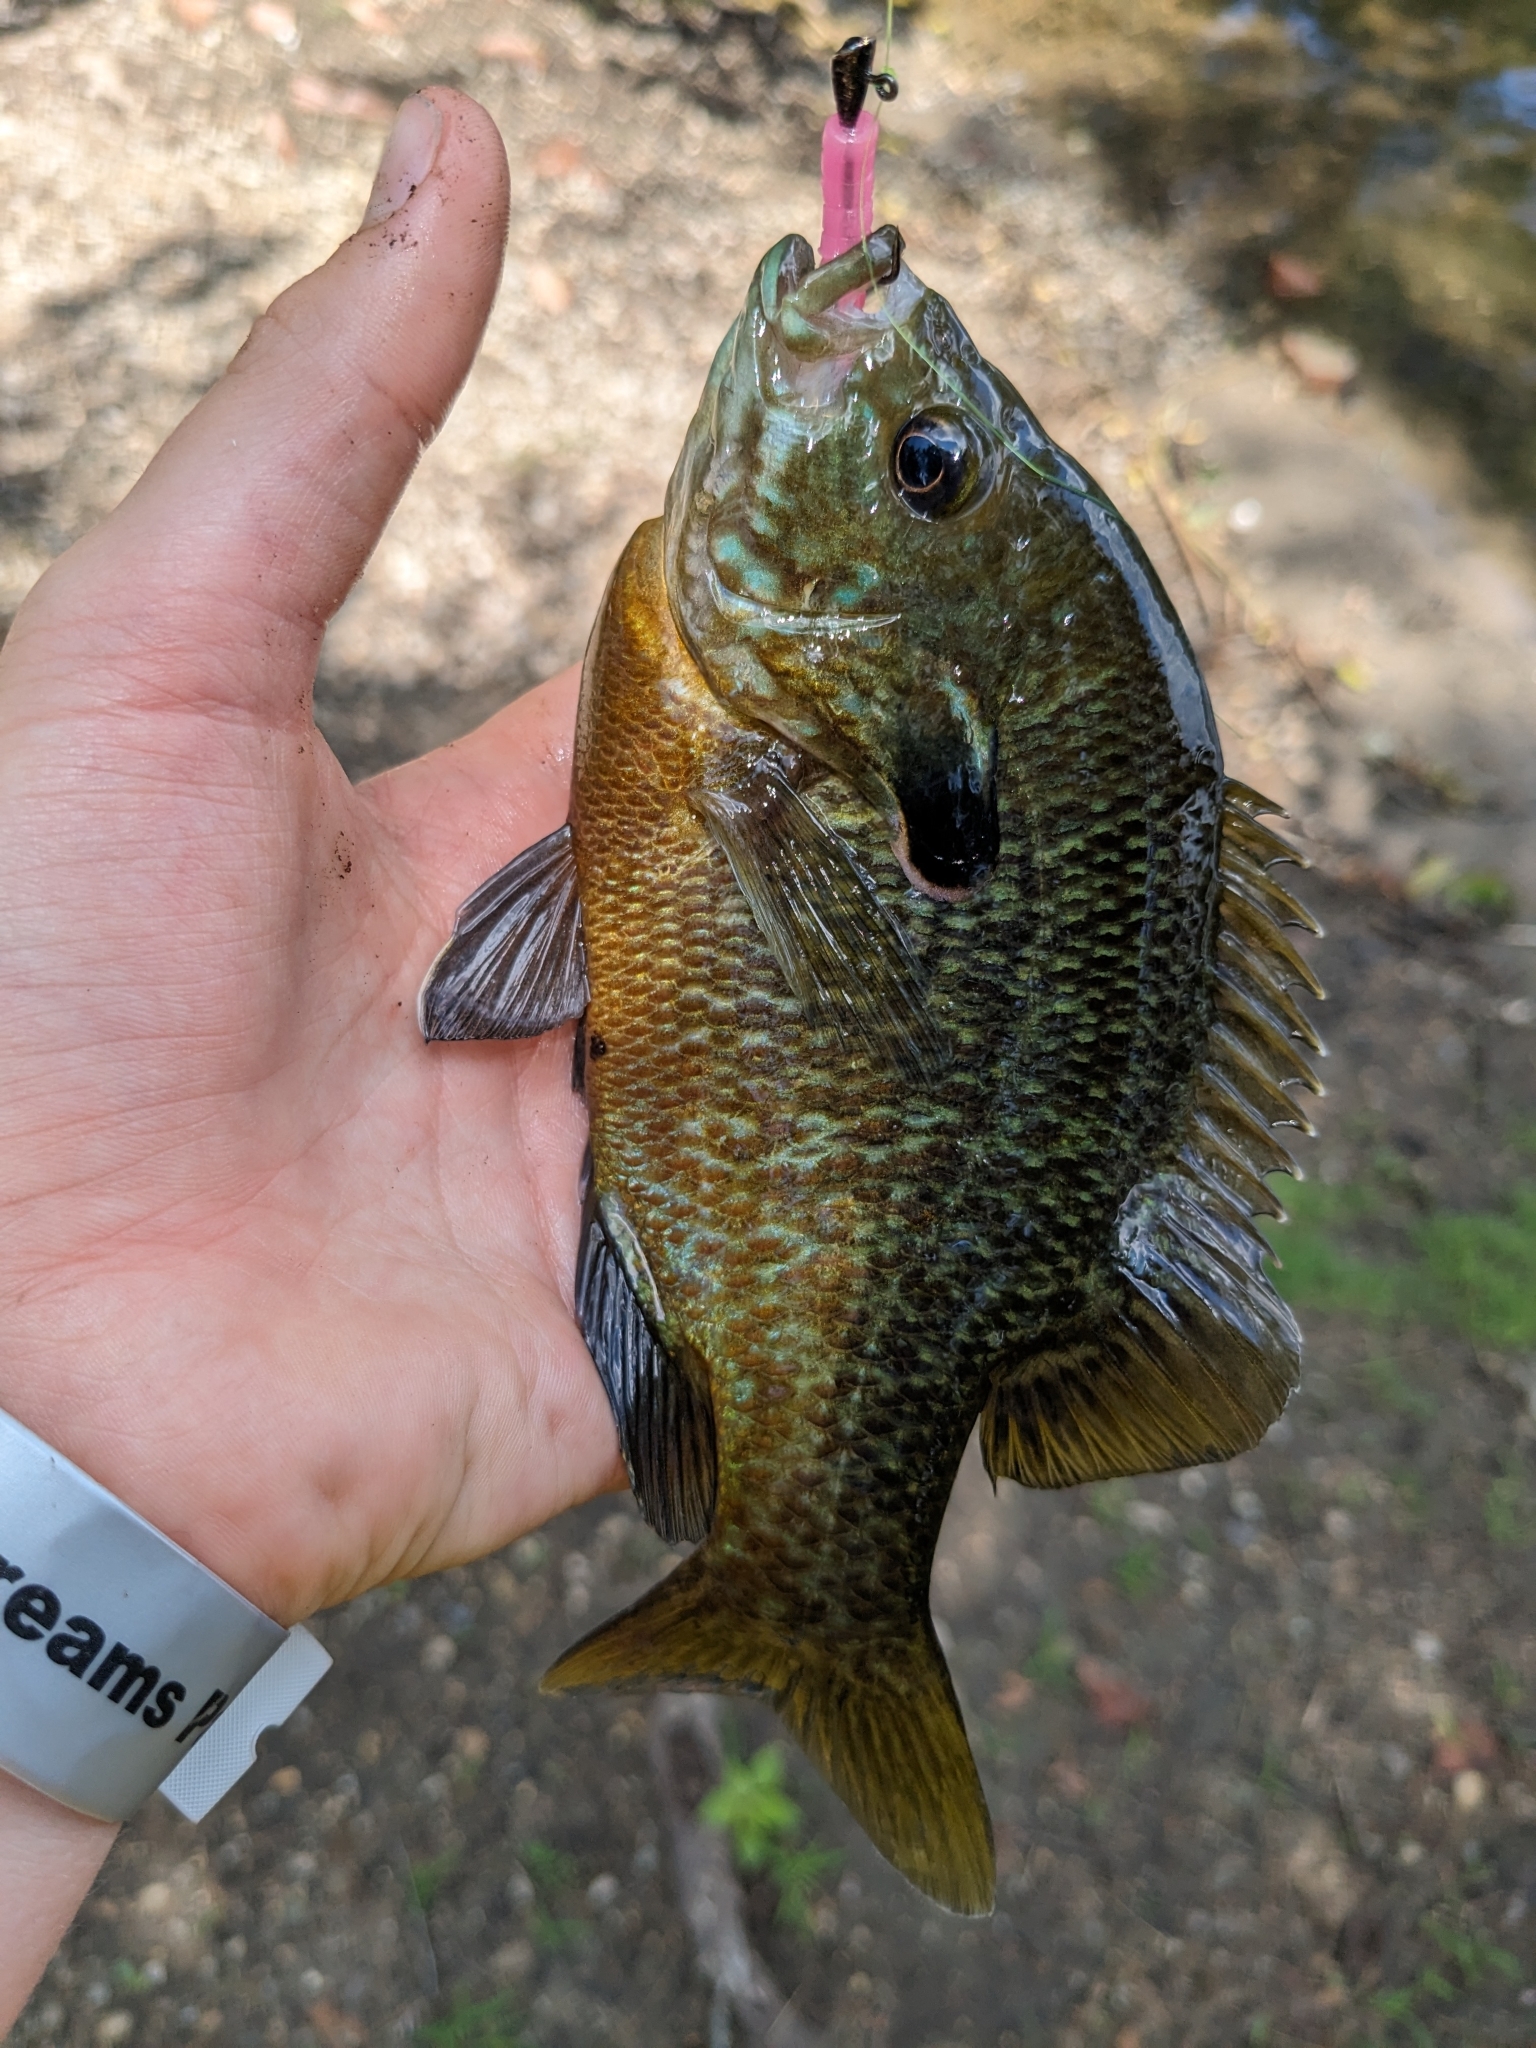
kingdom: Animalia
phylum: Chordata
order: Perciformes
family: Centrarchidae
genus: Lepomis
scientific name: Lepomis
